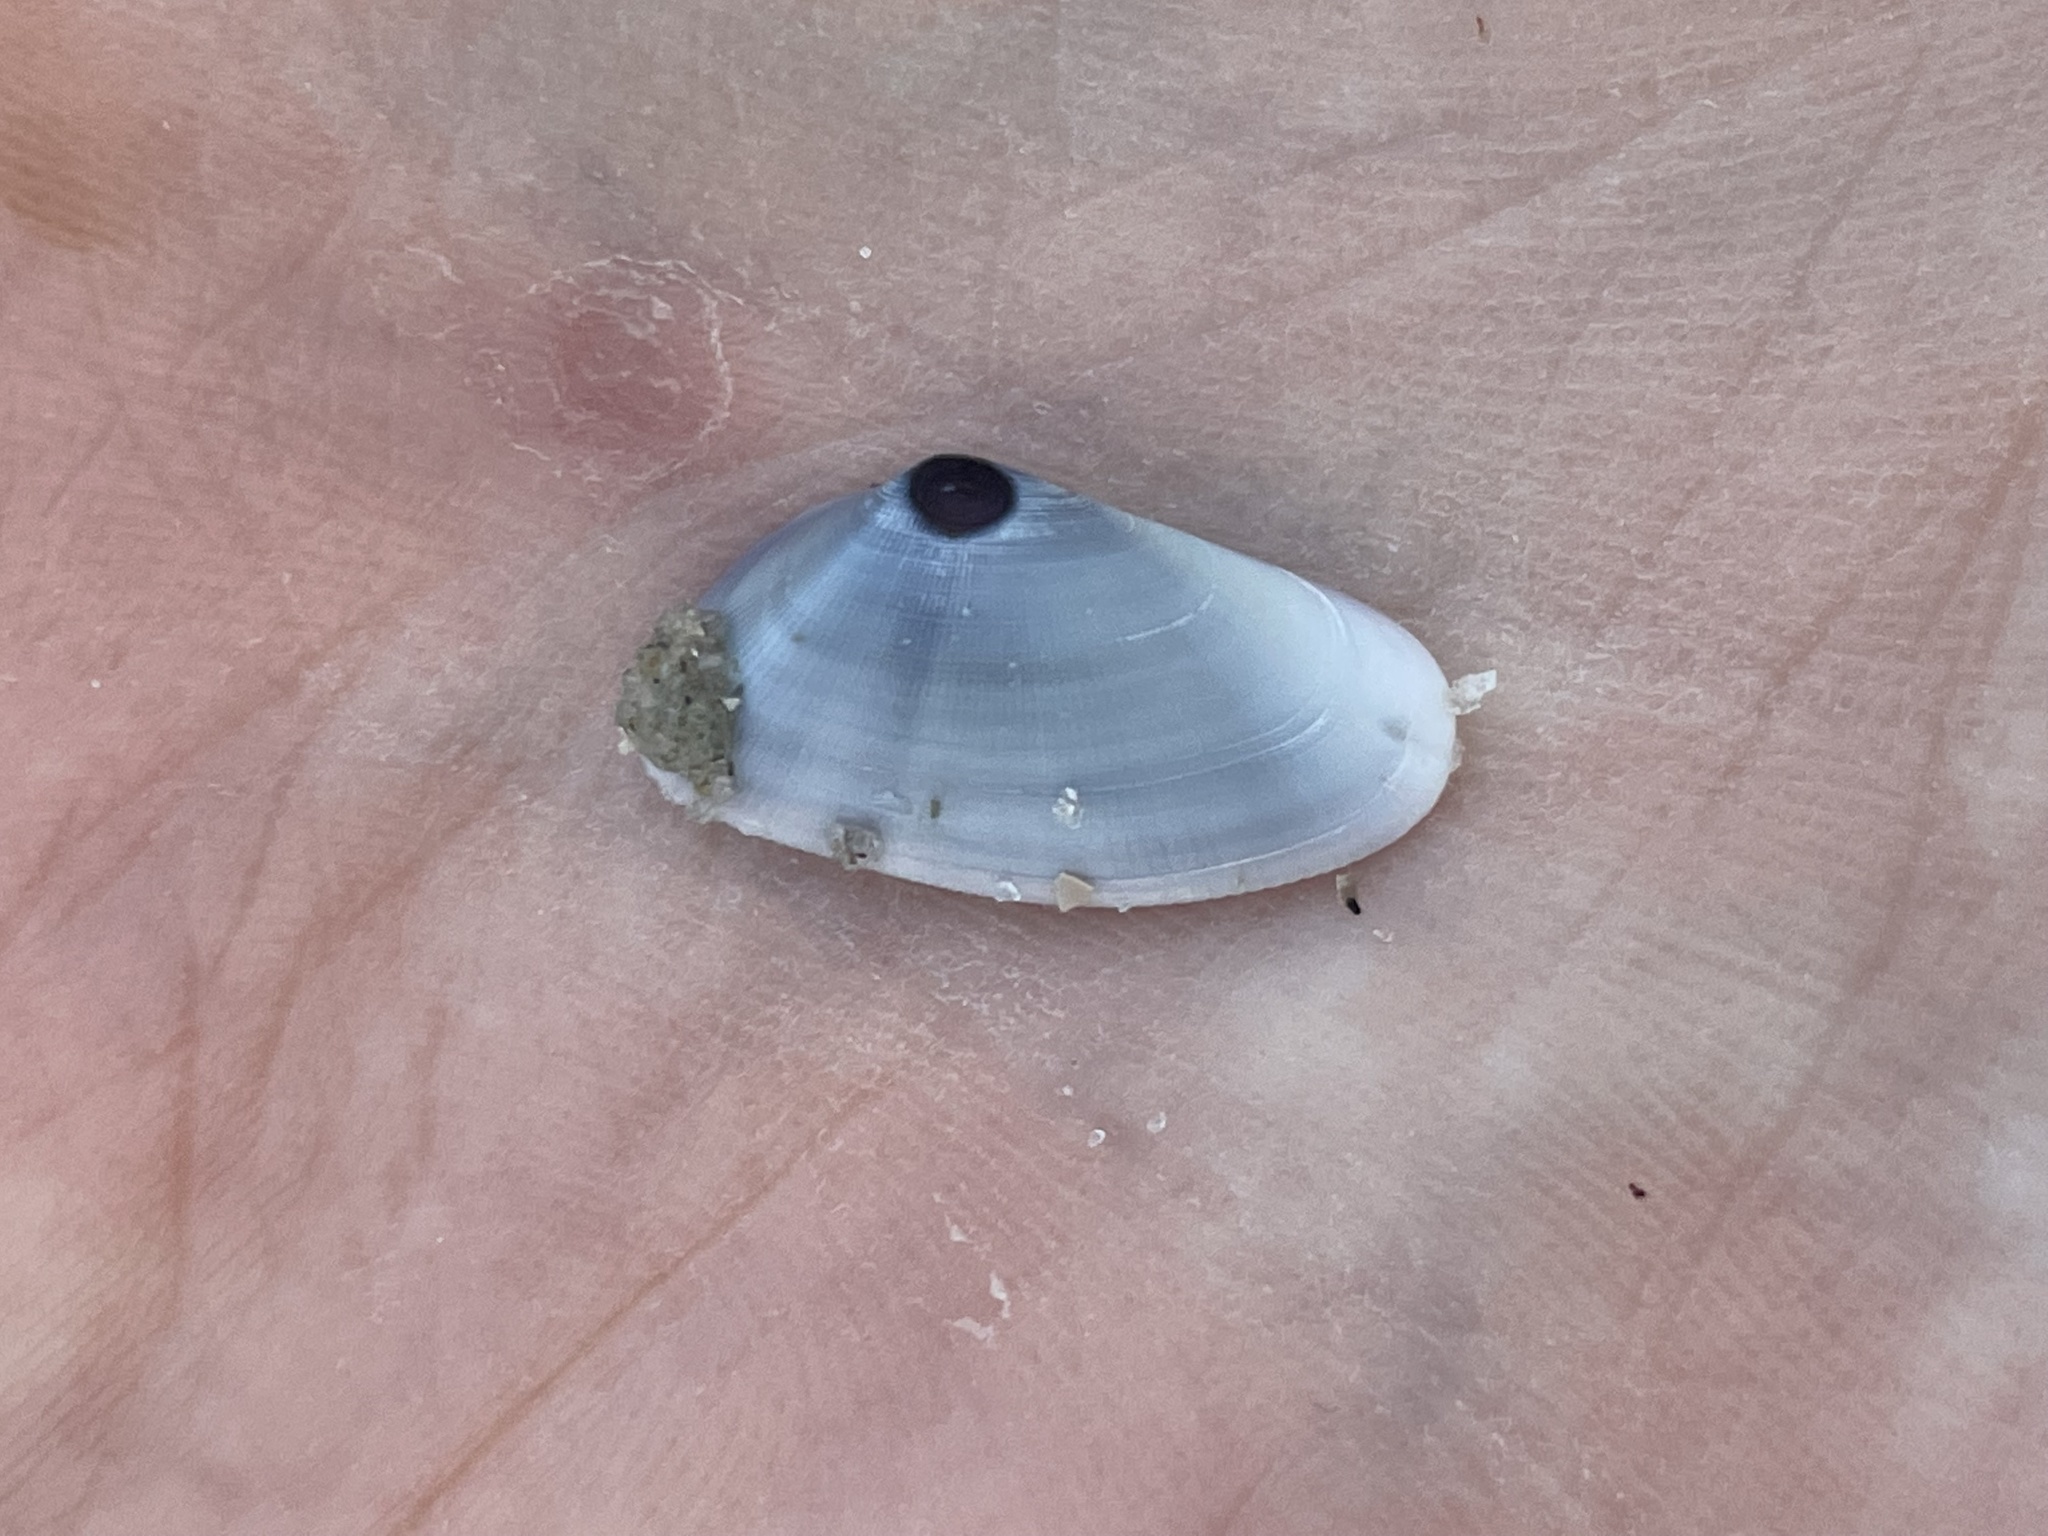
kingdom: Animalia
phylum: Mollusca
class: Bivalvia
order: Cardiida
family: Donacidae
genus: Donax
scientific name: Donax variabilis
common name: Butterfly shell
